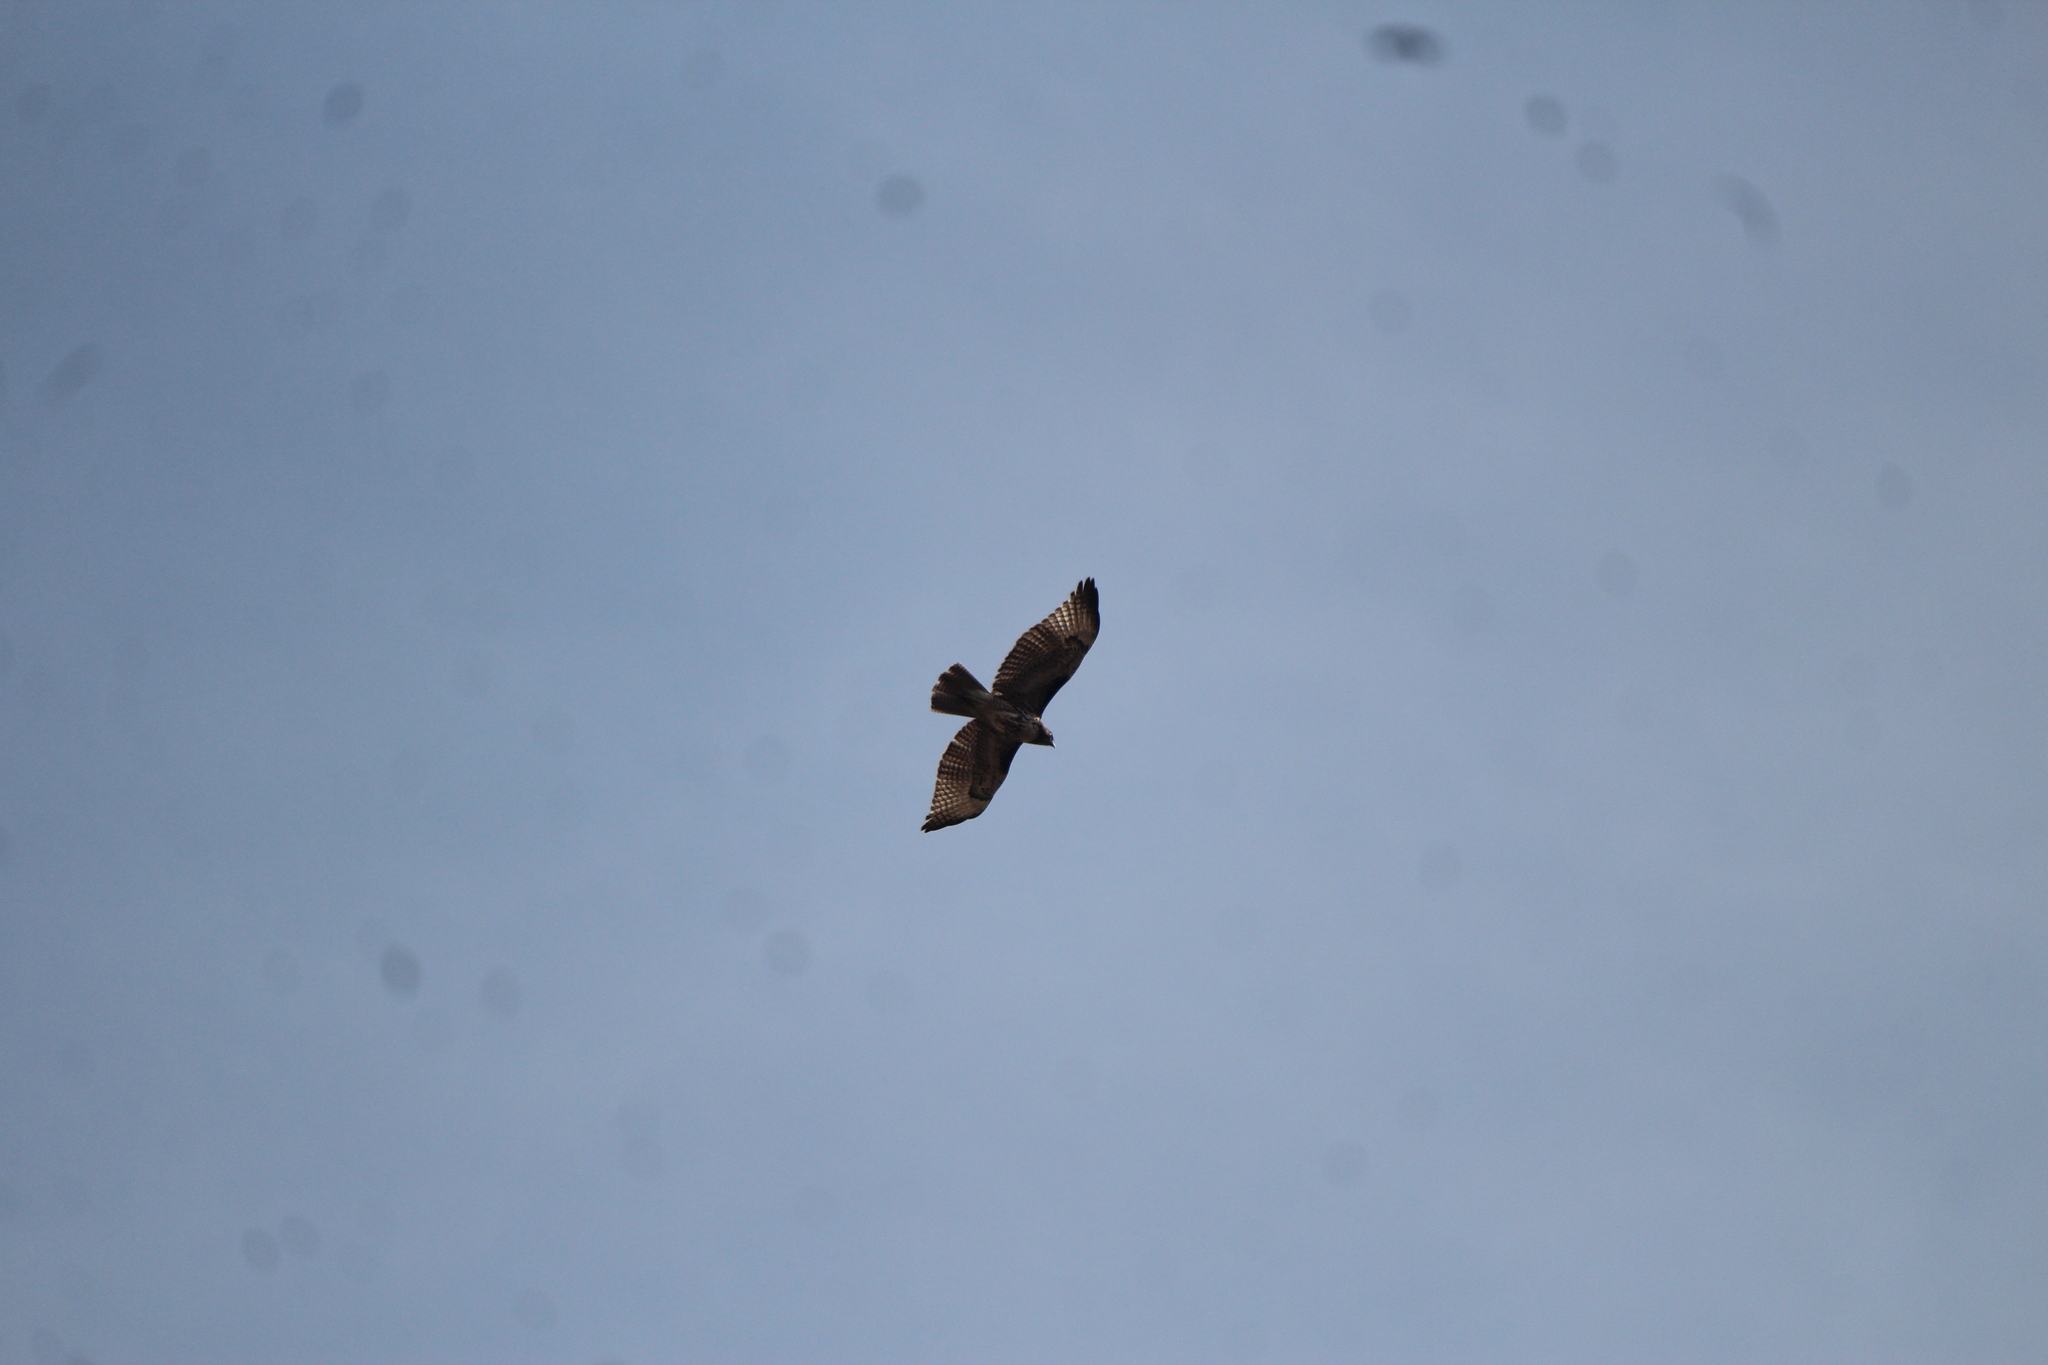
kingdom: Animalia
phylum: Chordata
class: Aves
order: Accipitriformes
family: Accipitridae
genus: Buteo
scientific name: Buteo jamaicensis
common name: Red-tailed hawk
